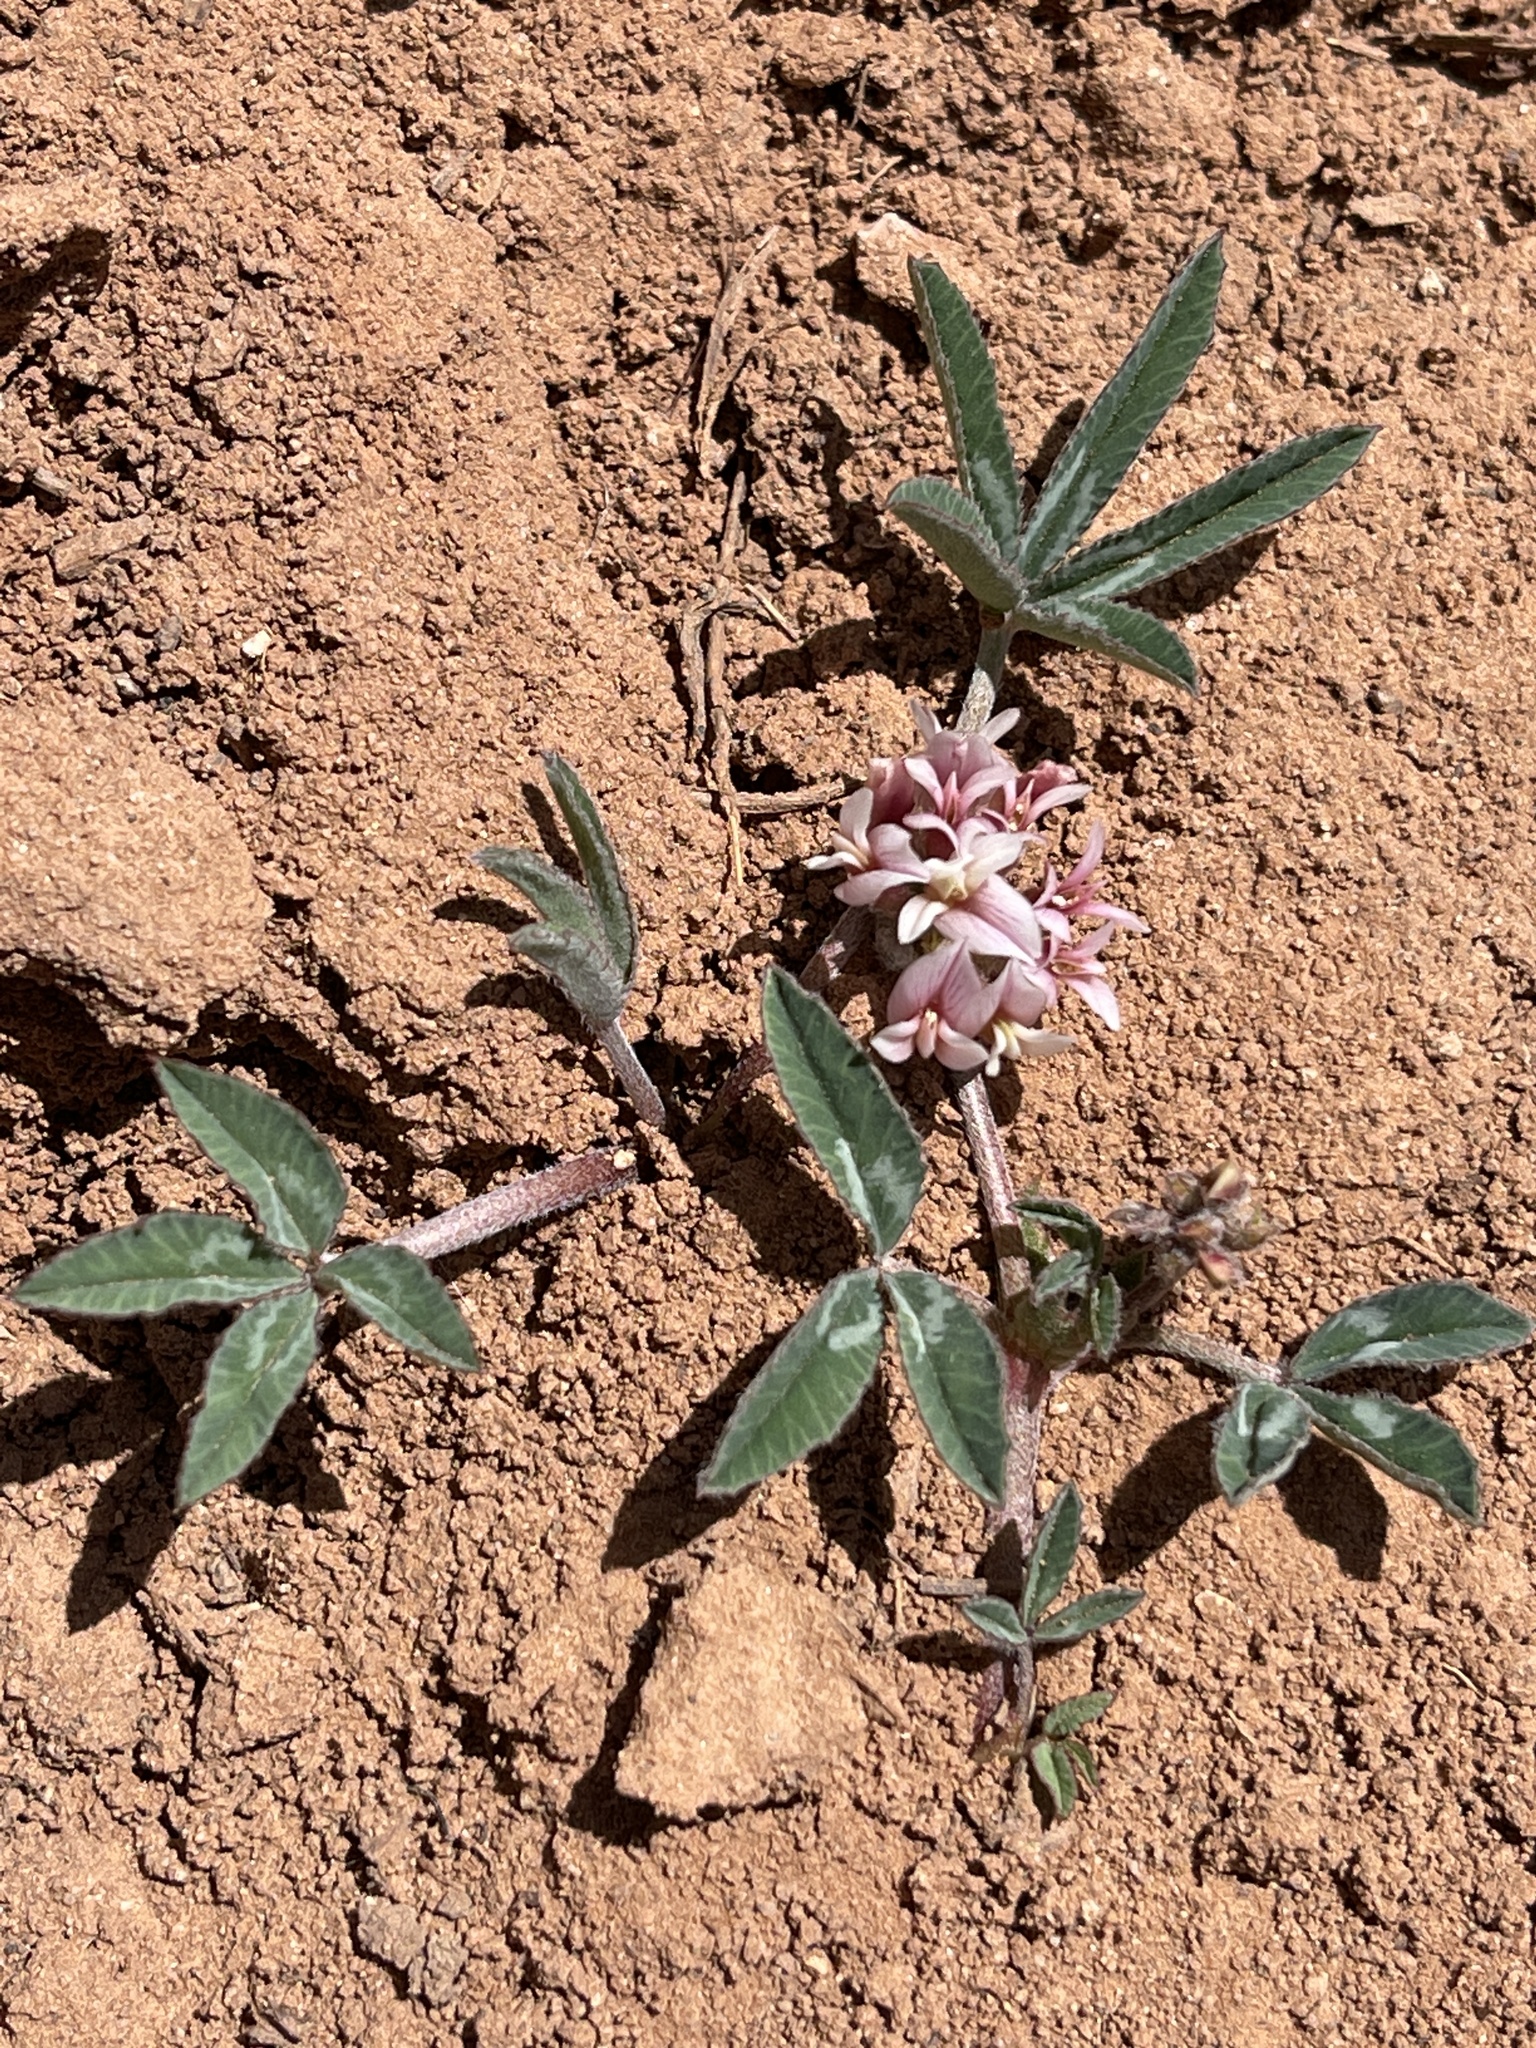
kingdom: Plantae
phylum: Tracheophyta
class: Magnoliopsida
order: Fabales
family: Fabaceae
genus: Trifolium
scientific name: Trifolium gymnocarpon
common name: Tufted clover
